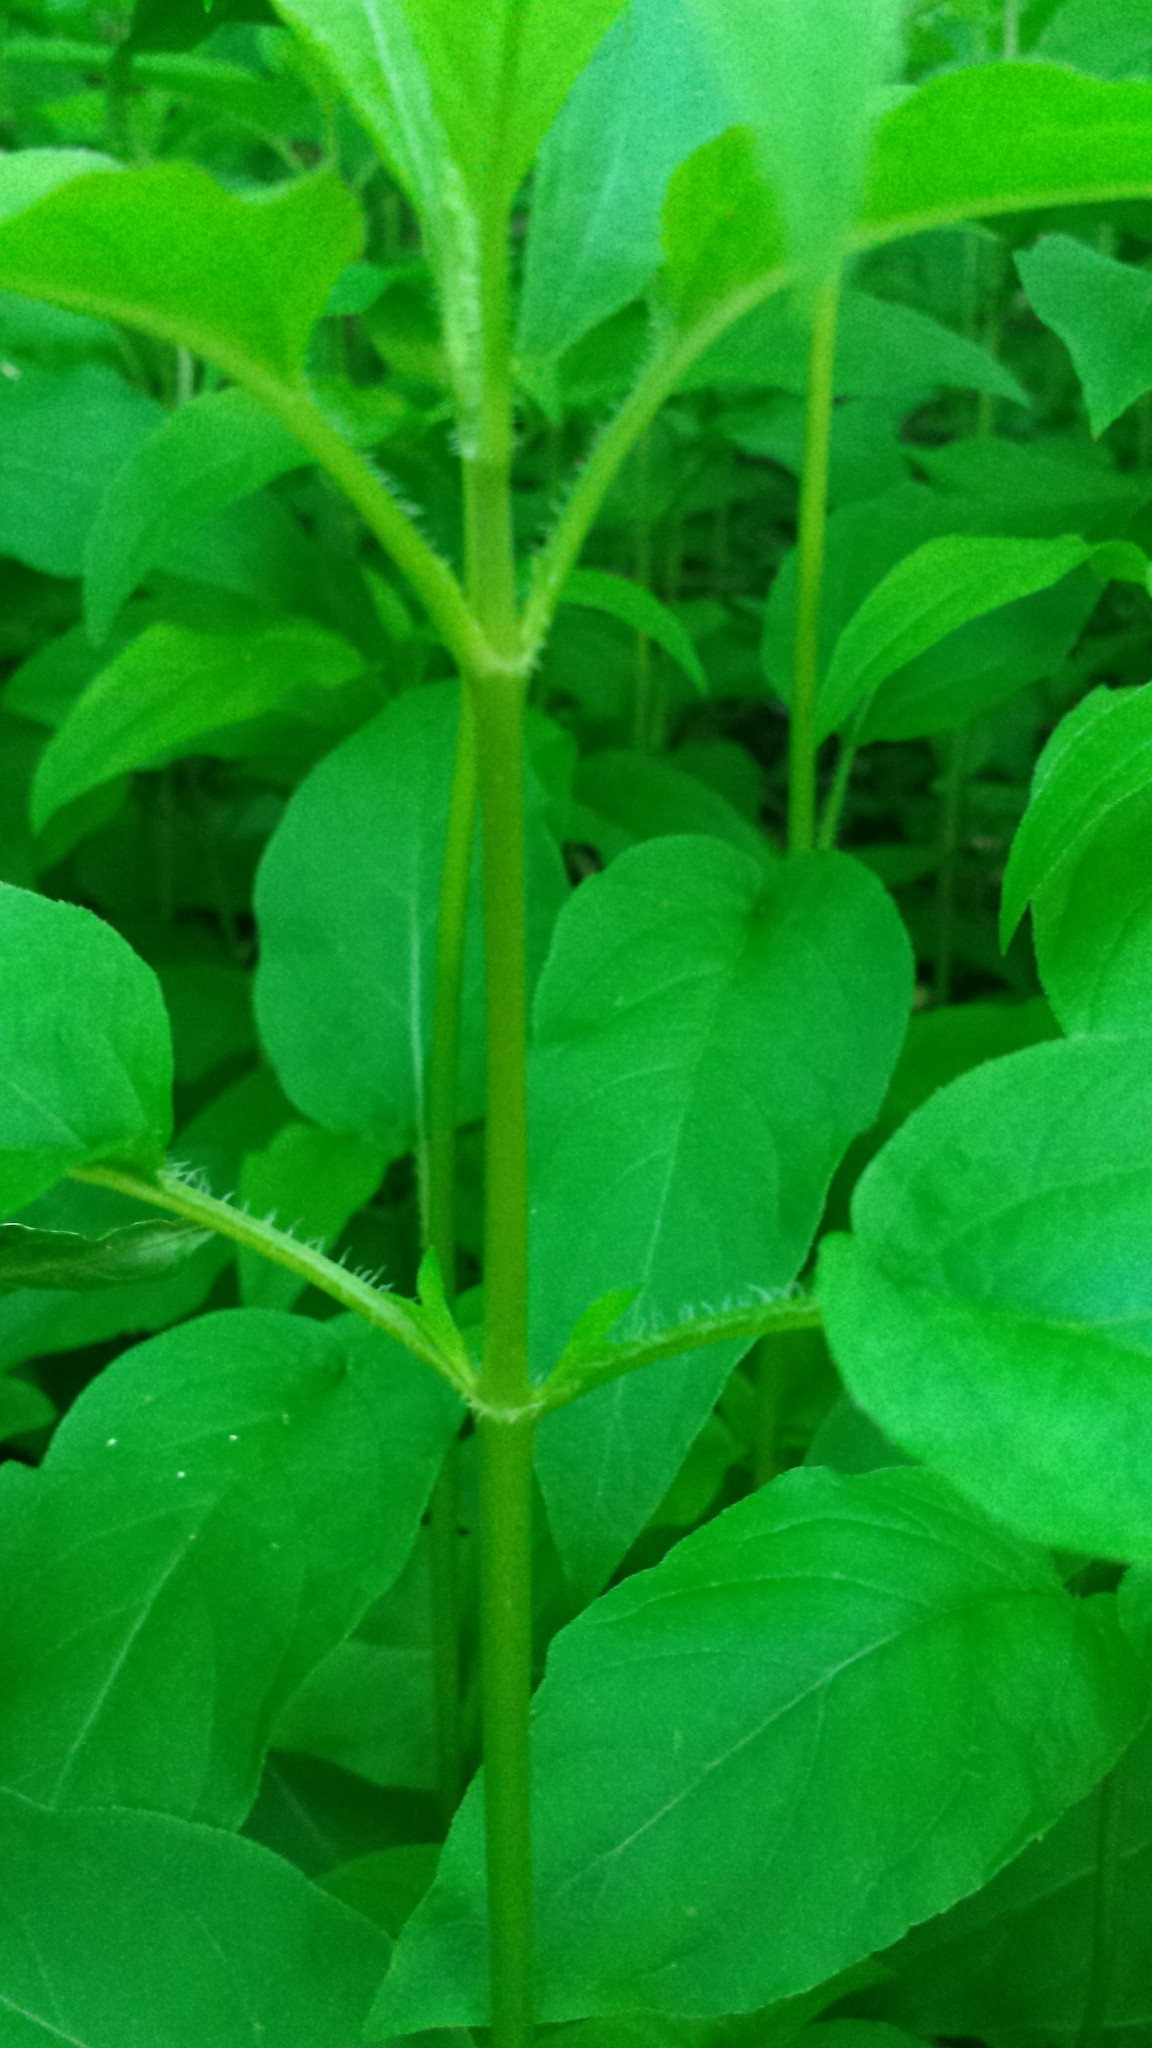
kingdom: Plantae
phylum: Tracheophyta
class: Magnoliopsida
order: Ericales
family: Primulaceae
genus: Lysimachia
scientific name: Lysimachia ciliata
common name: Fringed loosestrife
